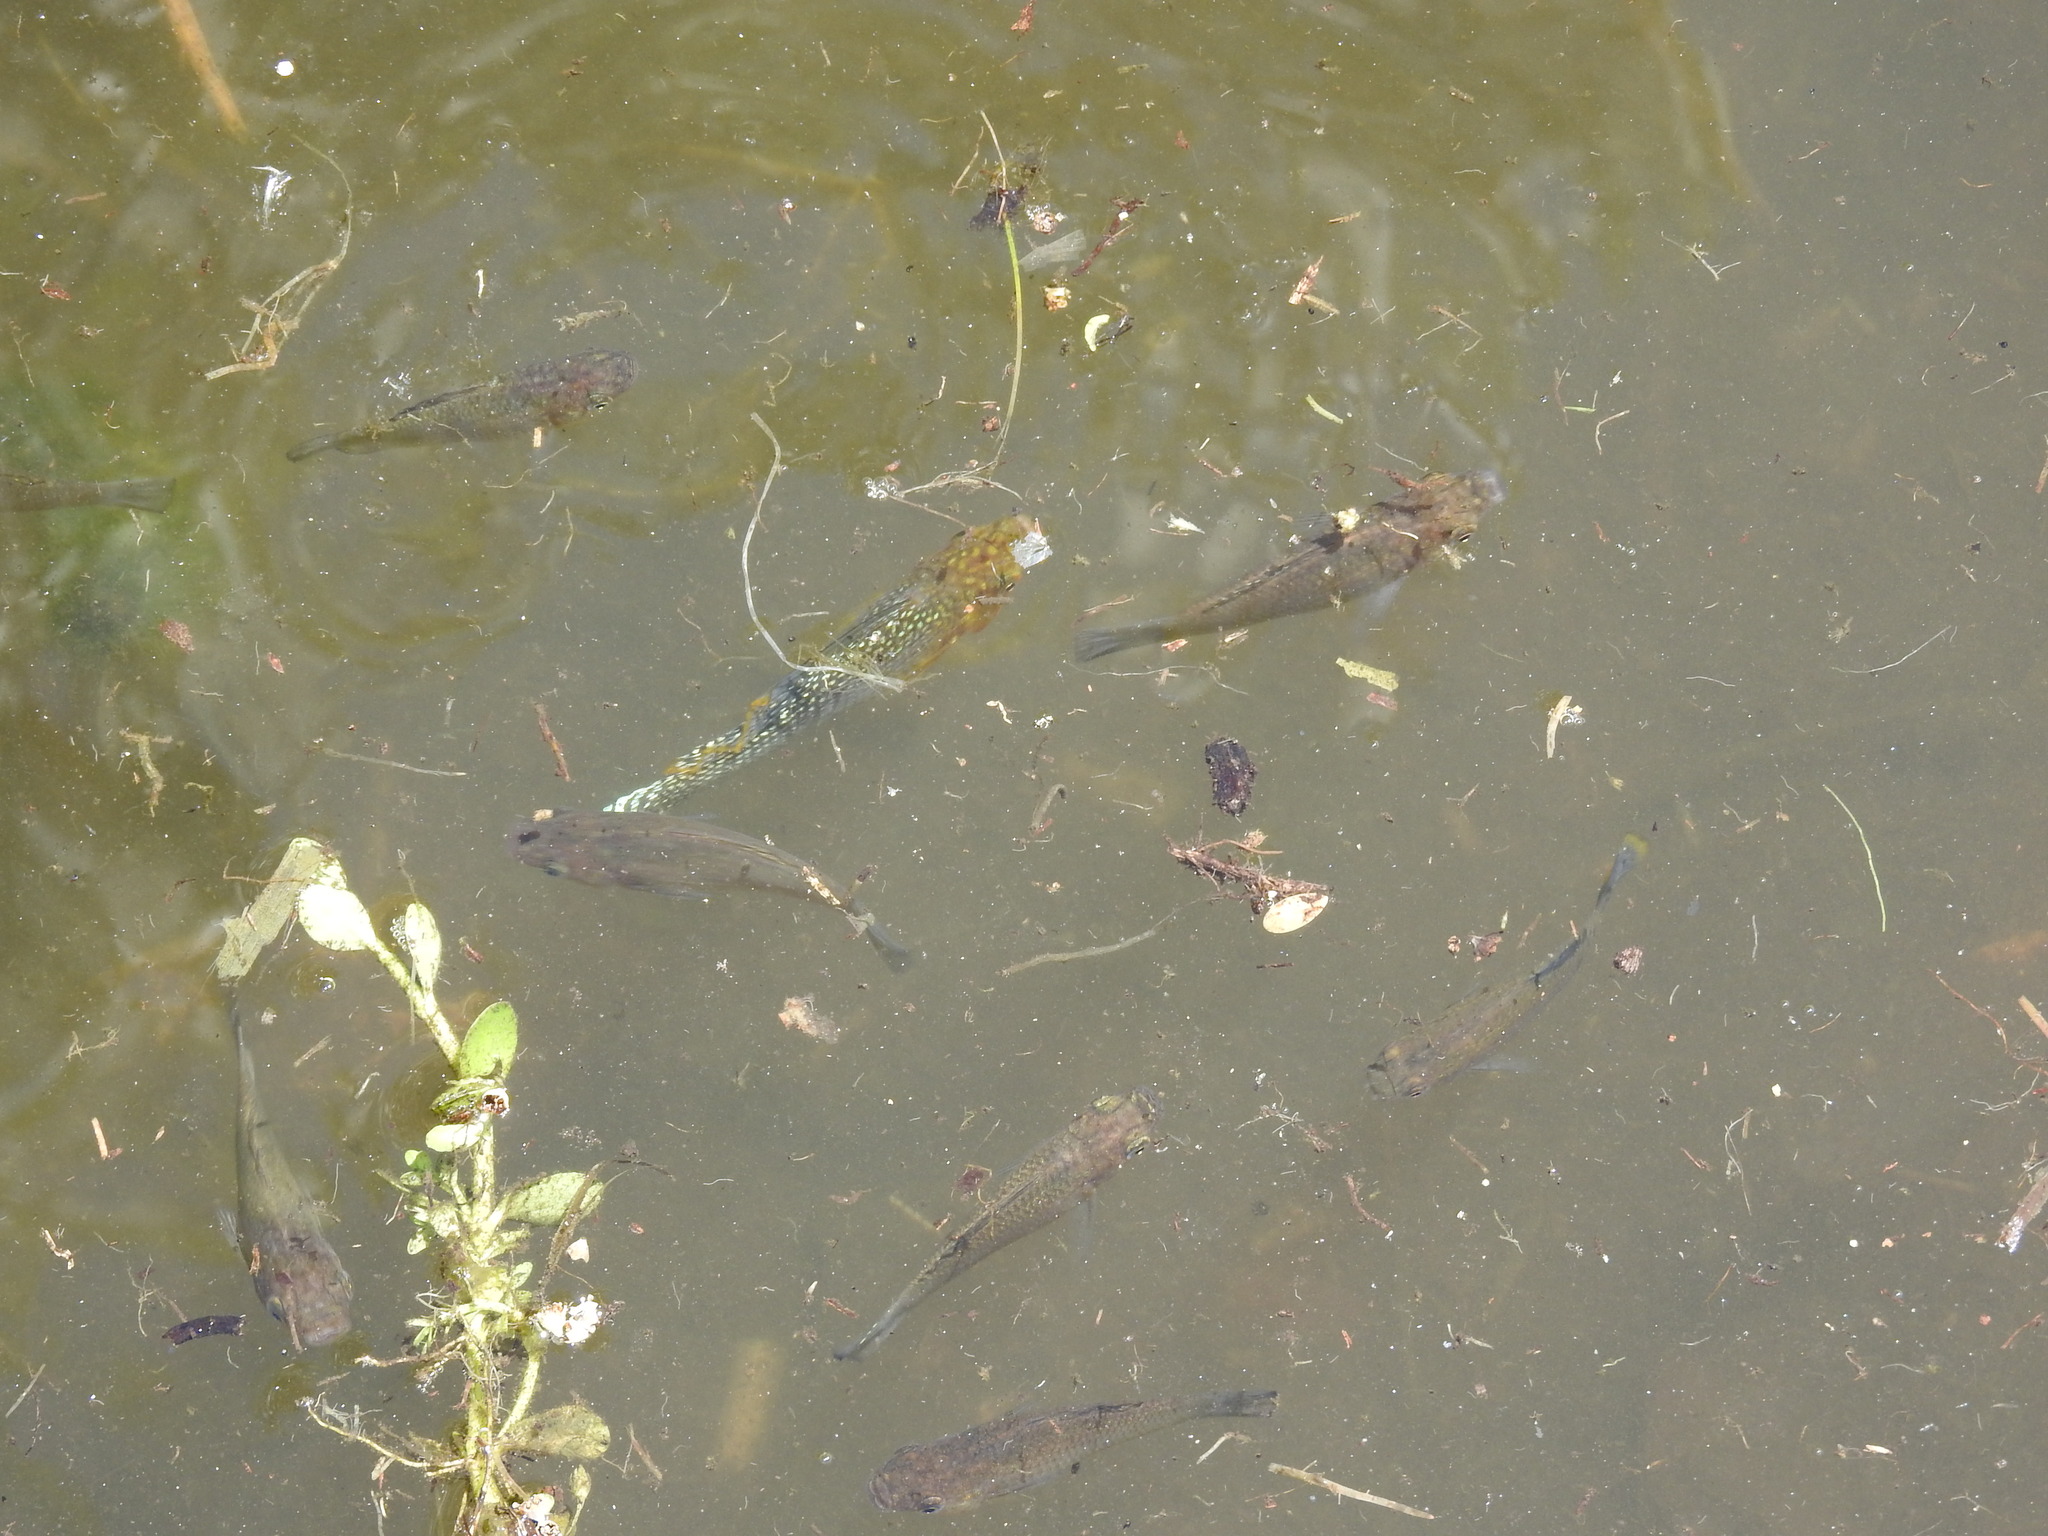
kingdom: Animalia
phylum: Chordata
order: Cyprinodontiformes
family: Poeciliidae
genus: Poecilia
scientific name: Poecilia velifera
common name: Sail-fin molly
